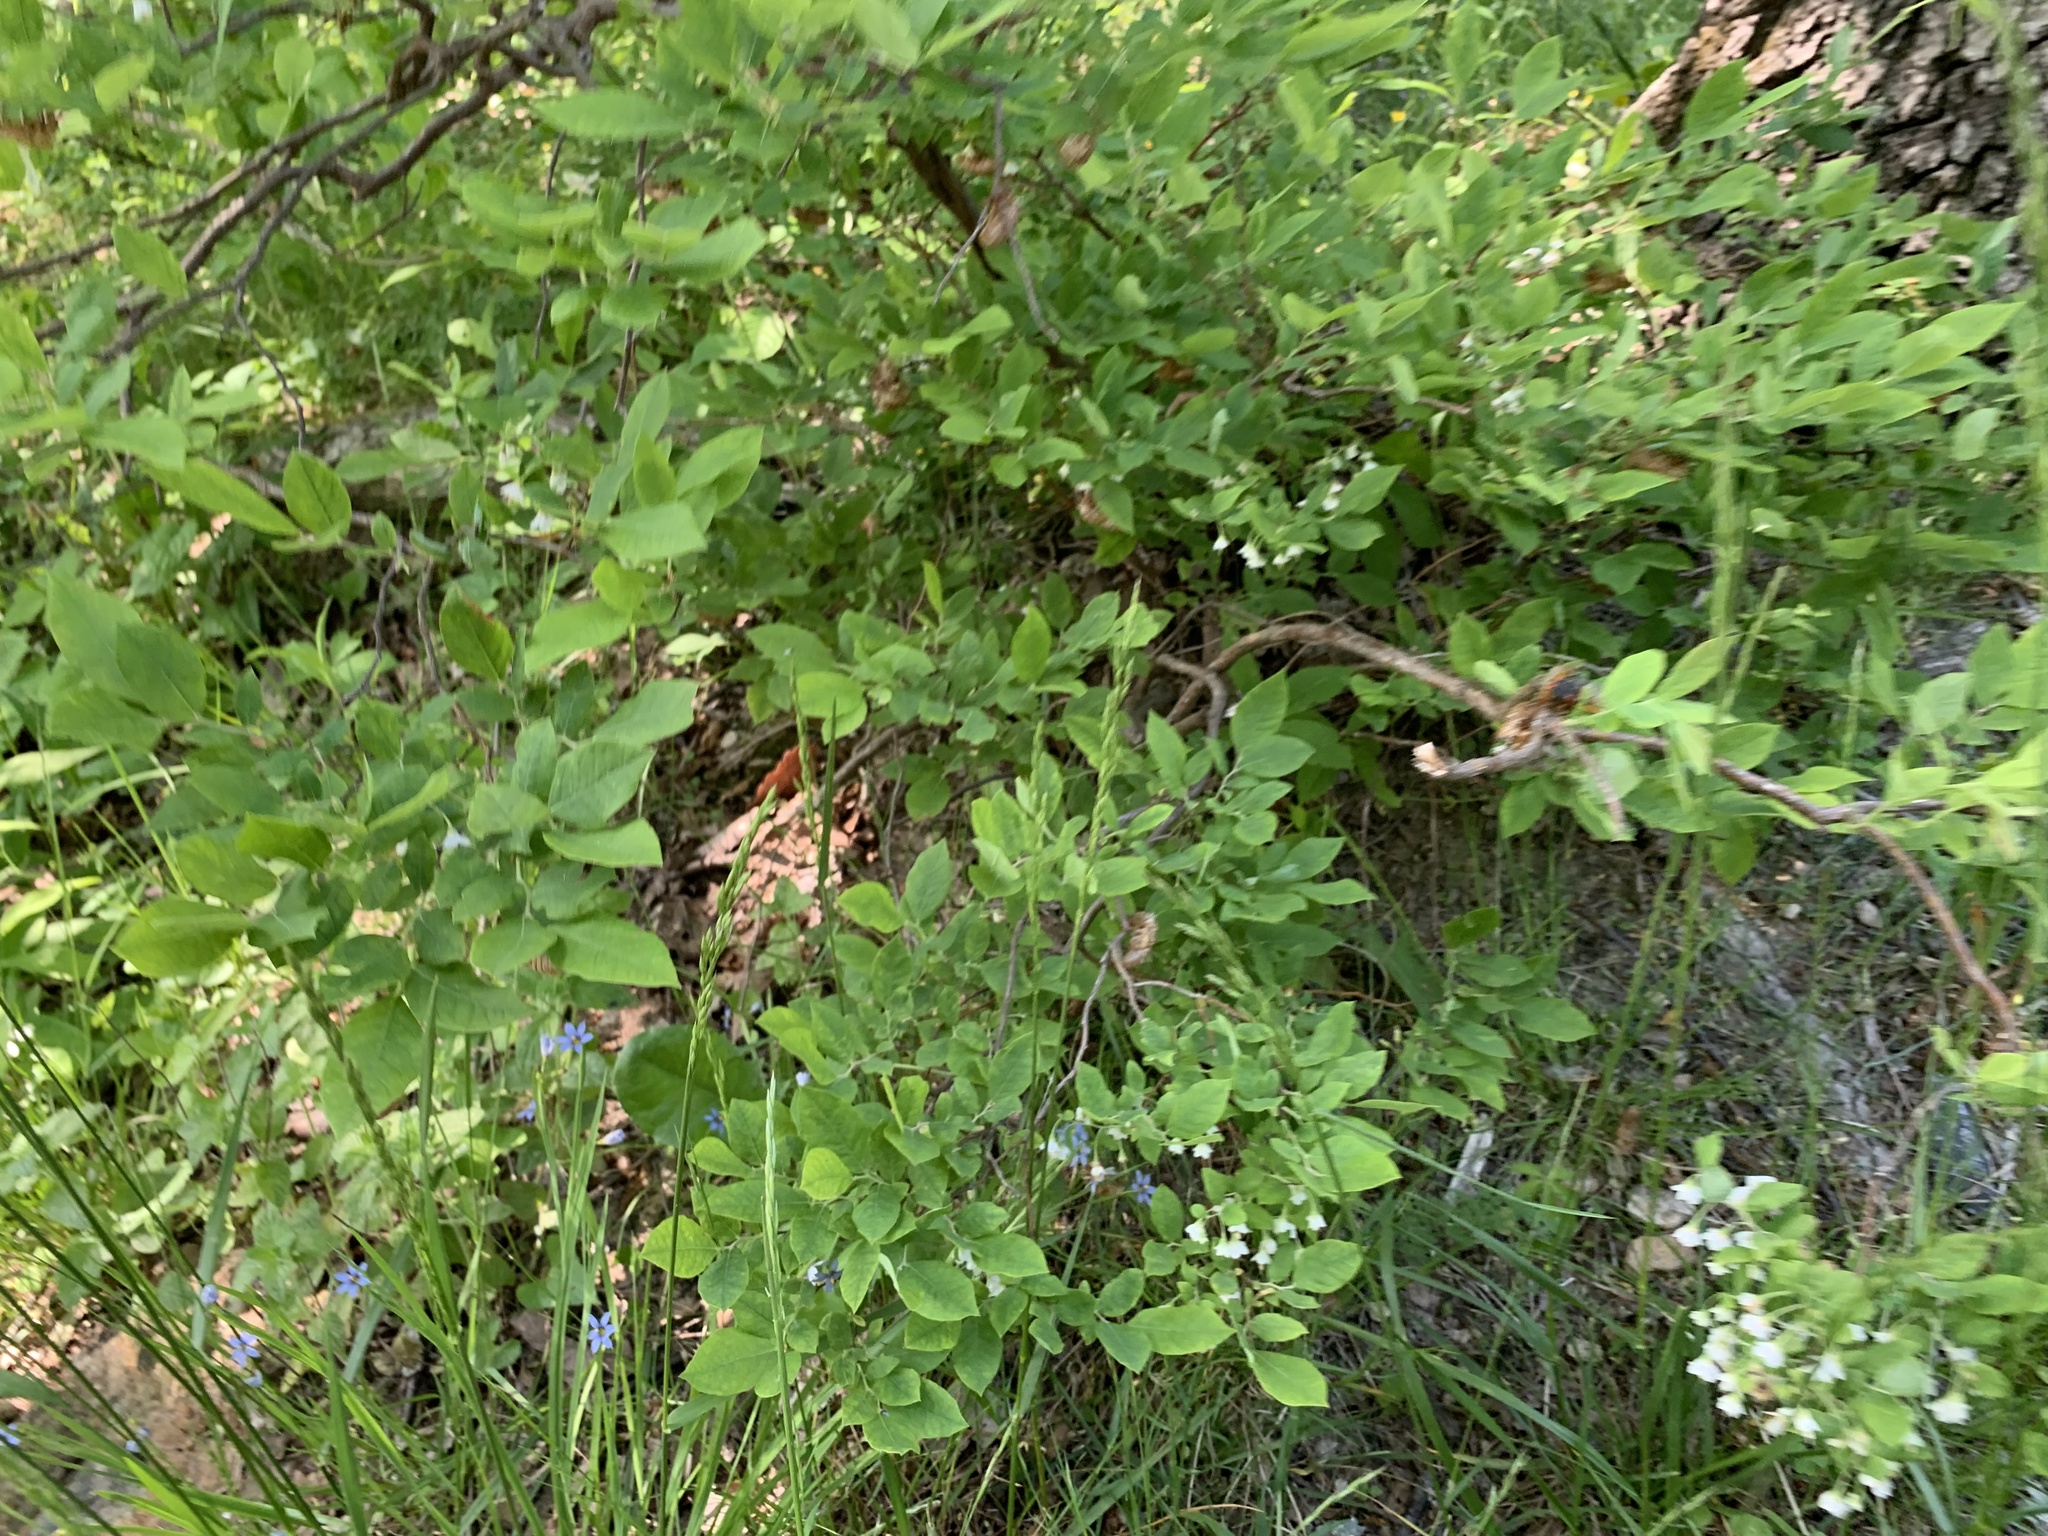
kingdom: Plantae
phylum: Tracheophyta
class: Magnoliopsida
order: Ericales
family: Ericaceae
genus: Vaccinium
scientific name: Vaccinium stamineum
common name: Deerberry
